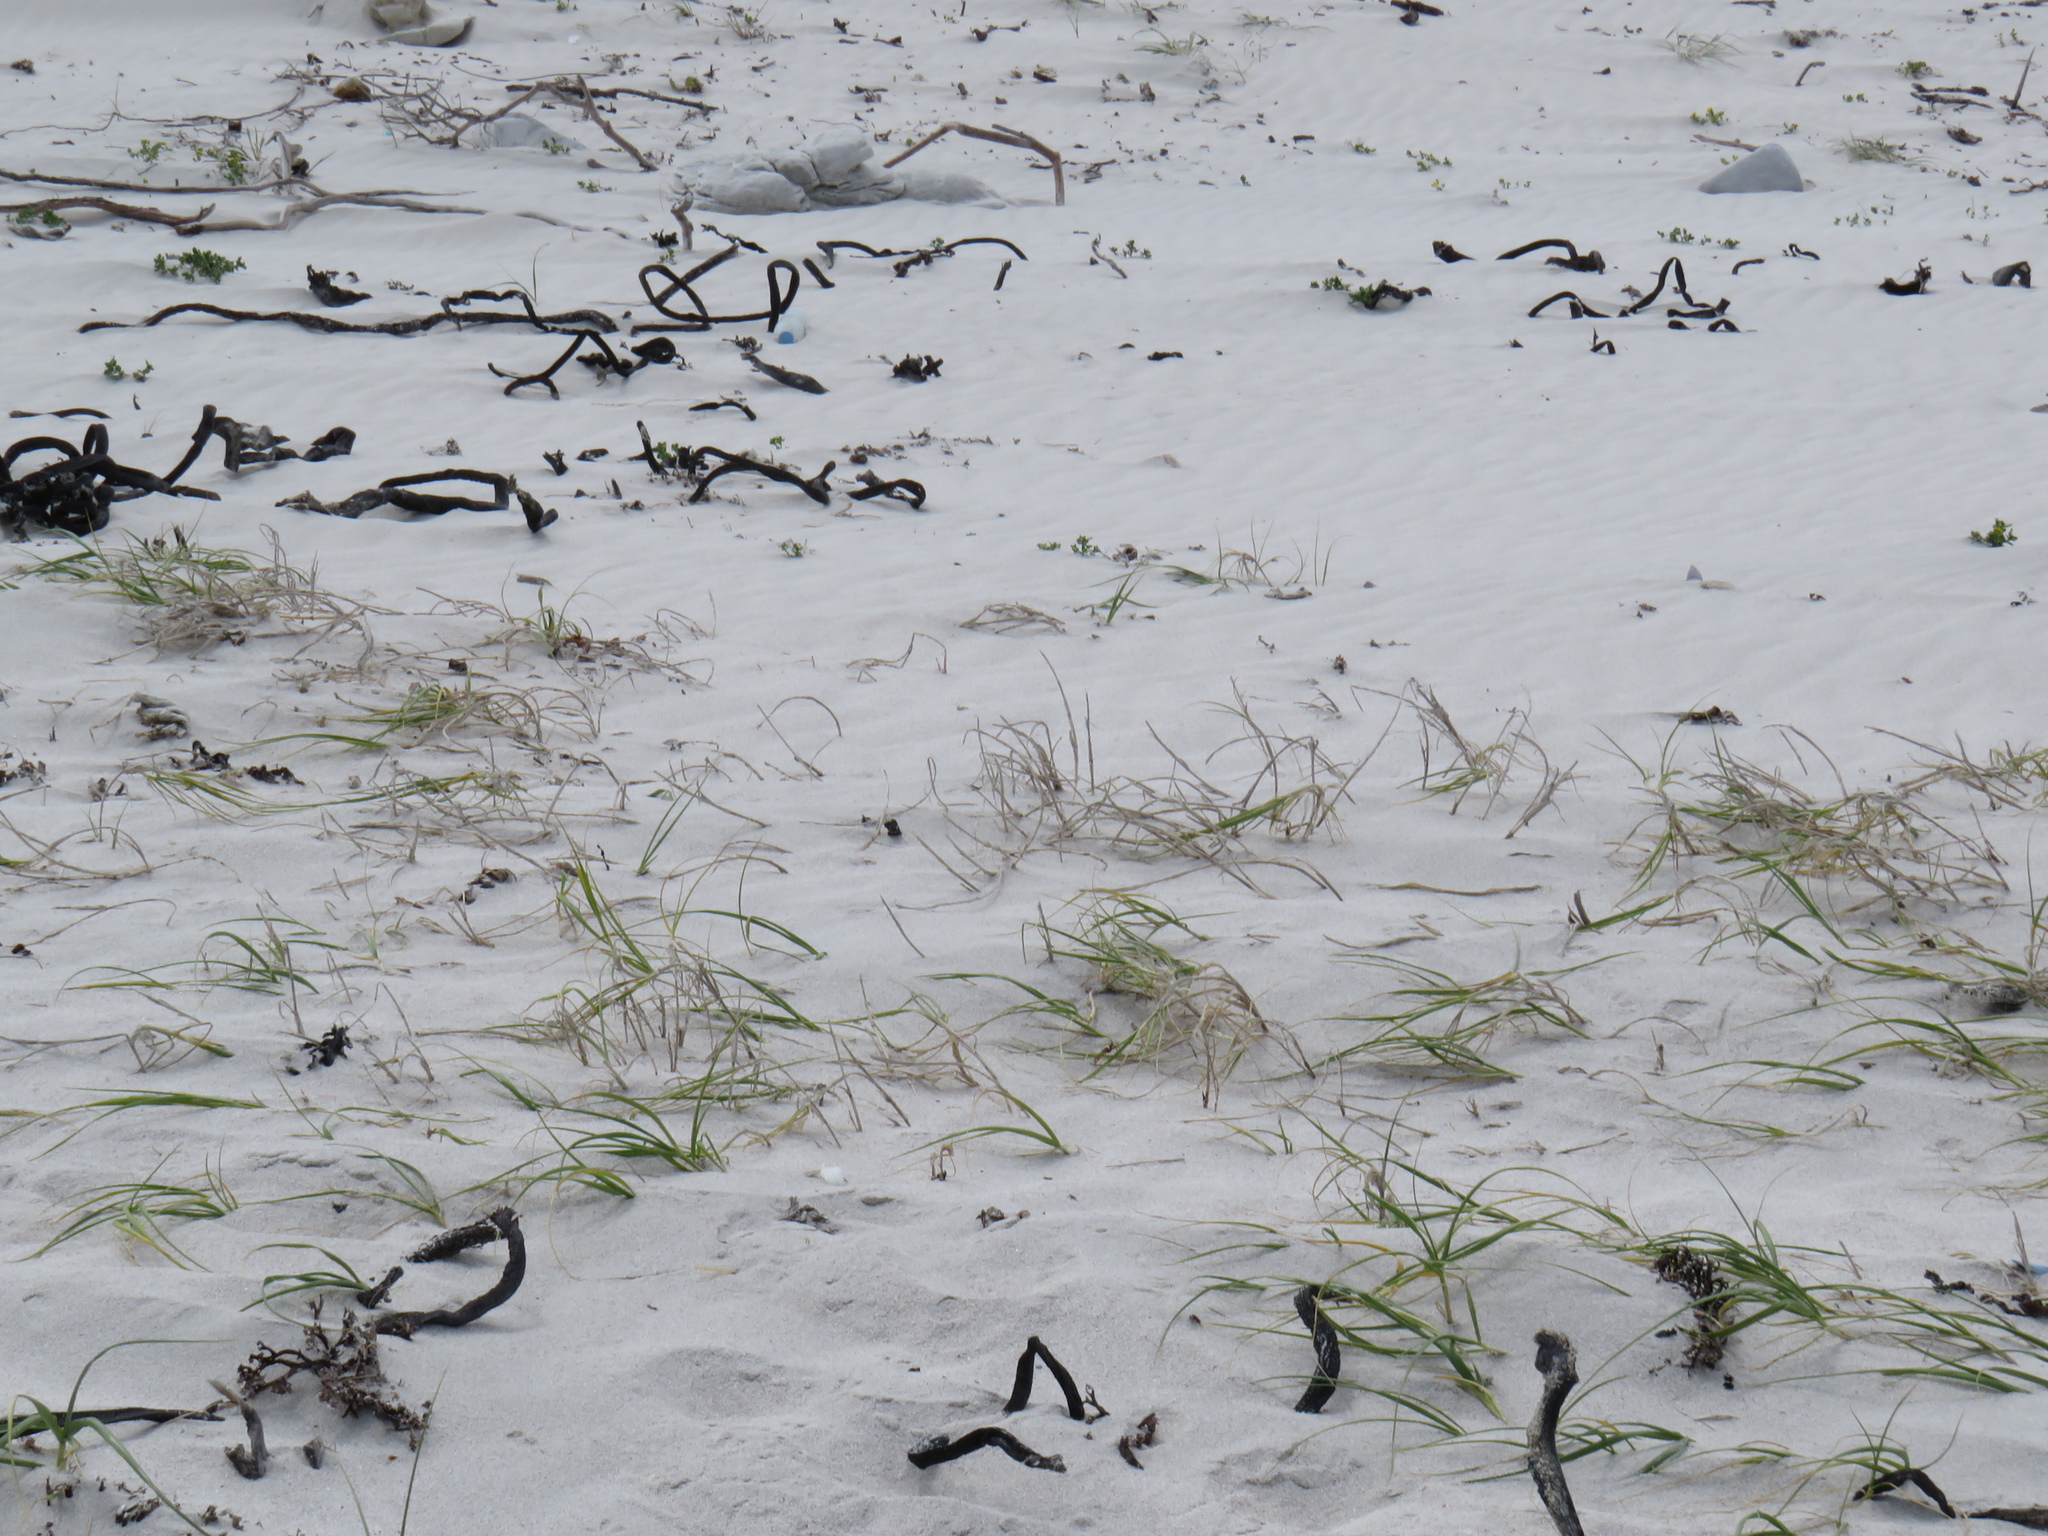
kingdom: Plantae
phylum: Tracheophyta
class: Liliopsida
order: Poales
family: Poaceae
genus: Thinopyrum
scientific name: Thinopyrum distichum
